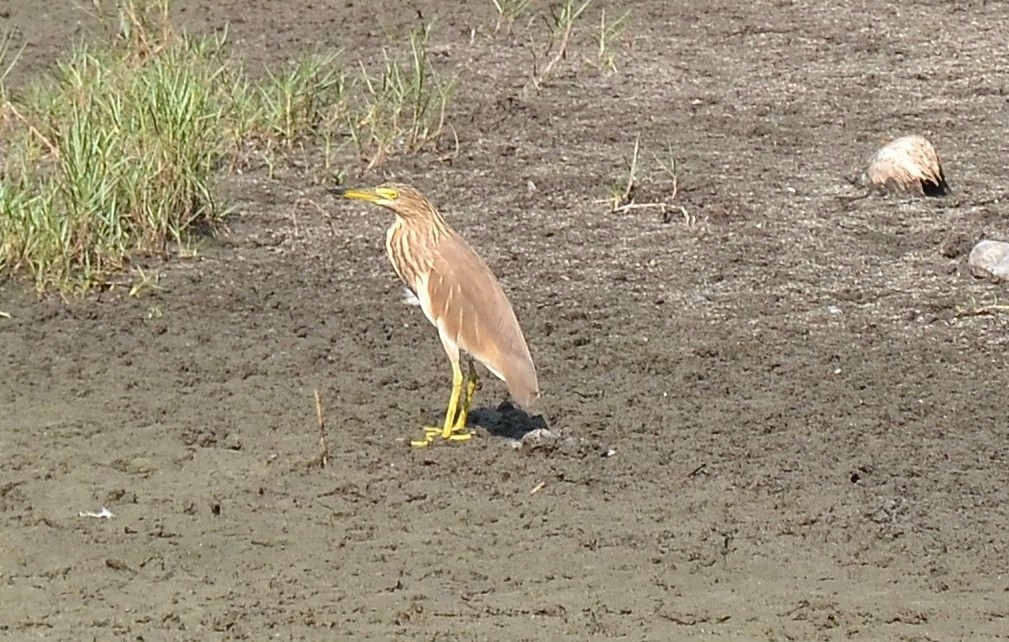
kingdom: Animalia
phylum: Chordata
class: Aves
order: Pelecaniformes
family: Ardeidae
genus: Ardeola
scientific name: Ardeola grayii
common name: Indian pond heron
